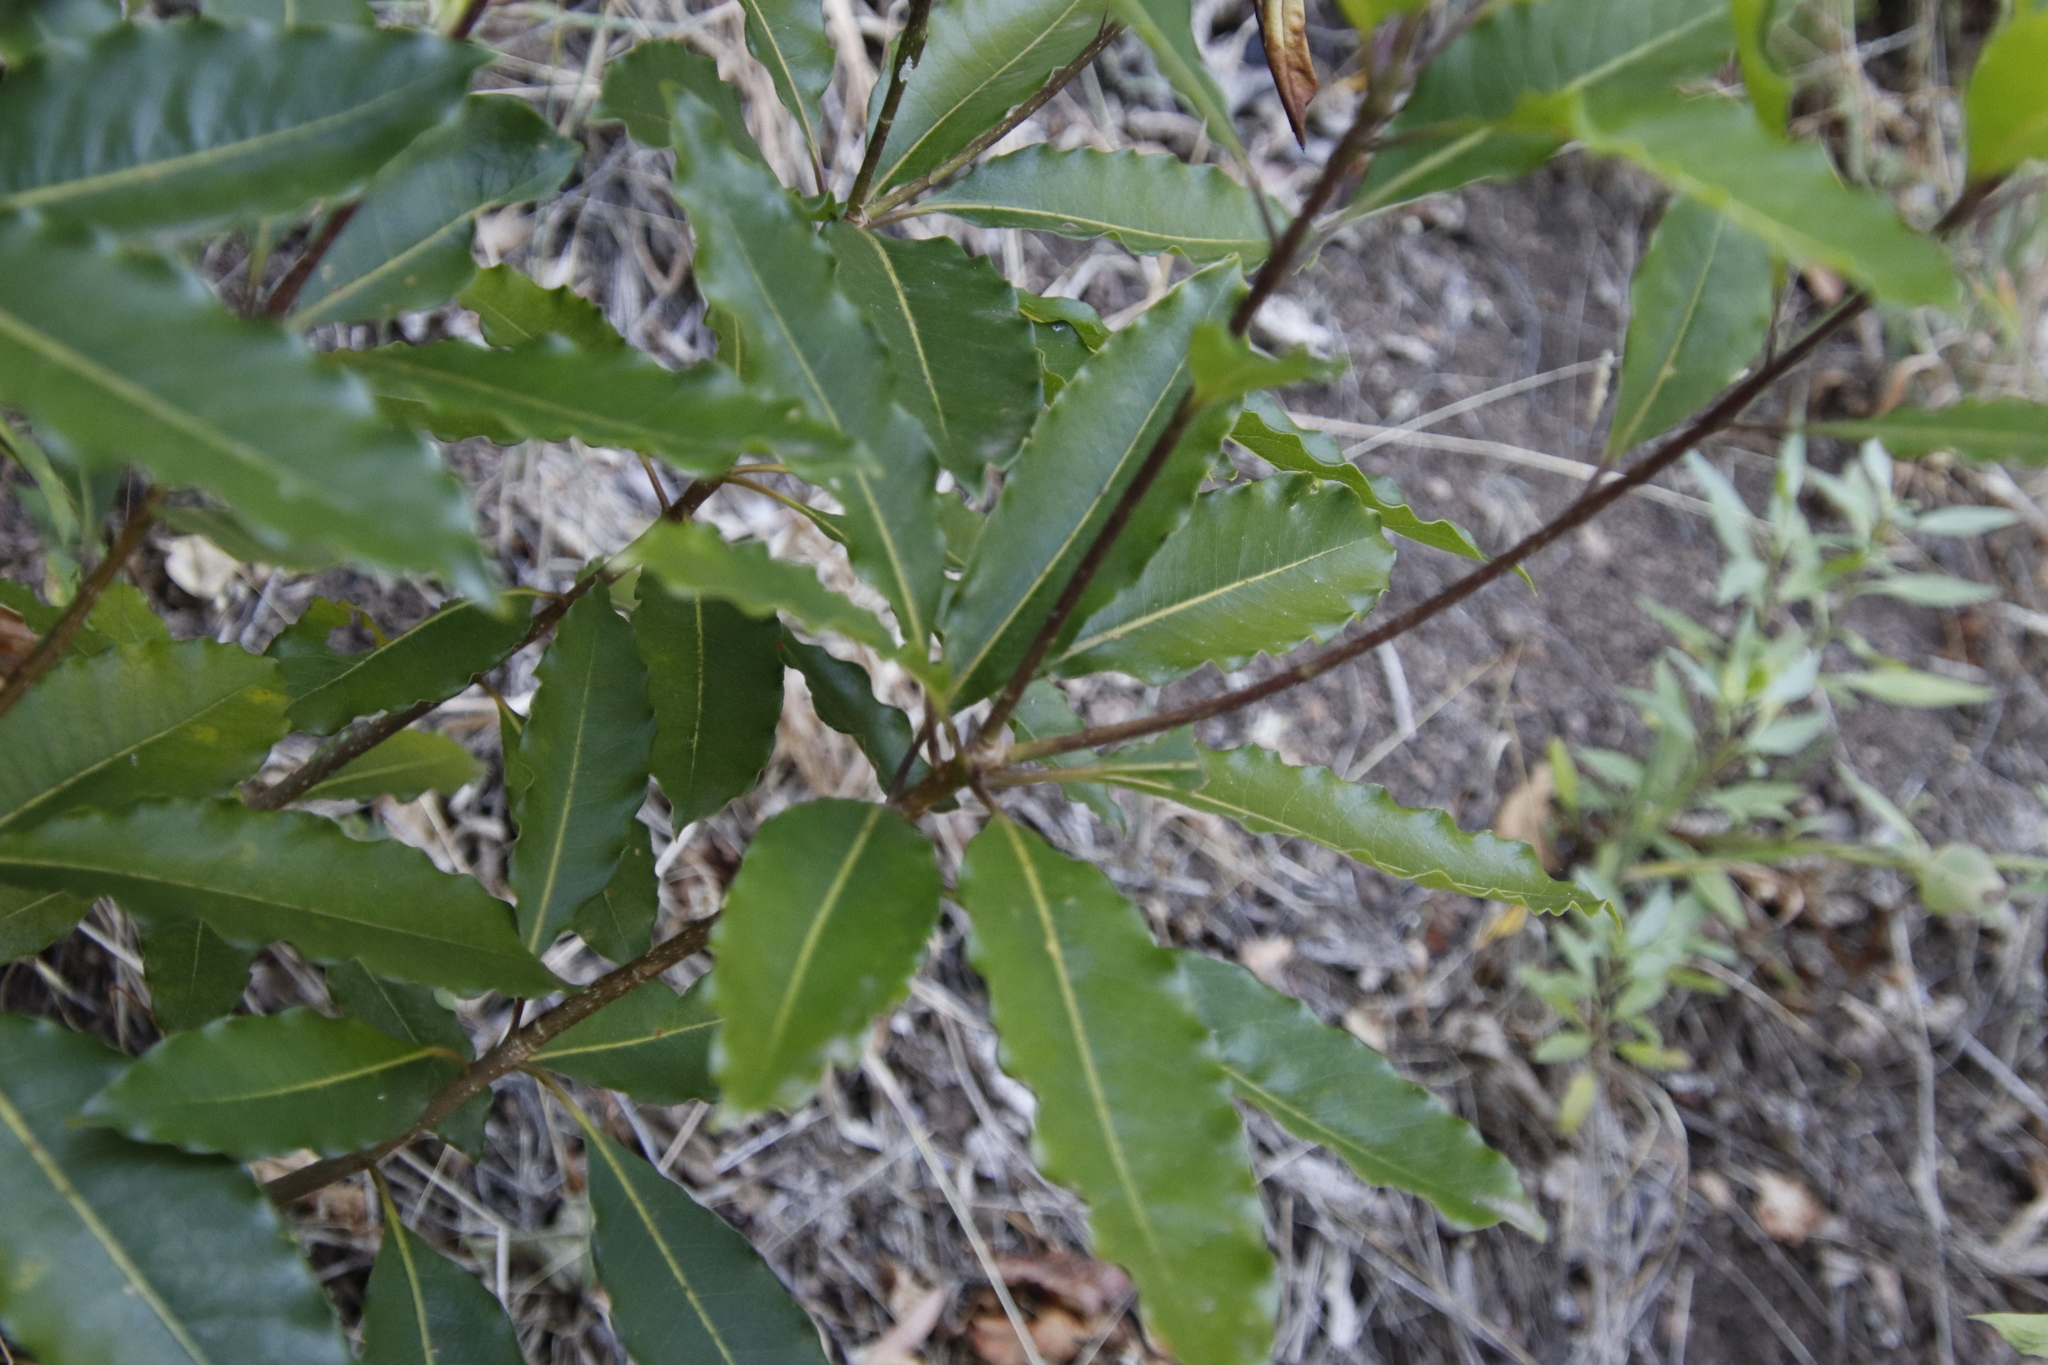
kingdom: Plantae
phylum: Tracheophyta
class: Magnoliopsida
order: Apiales
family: Pittosporaceae
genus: Pittosporum
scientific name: Pittosporum undulatum
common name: Australian cheesewood
